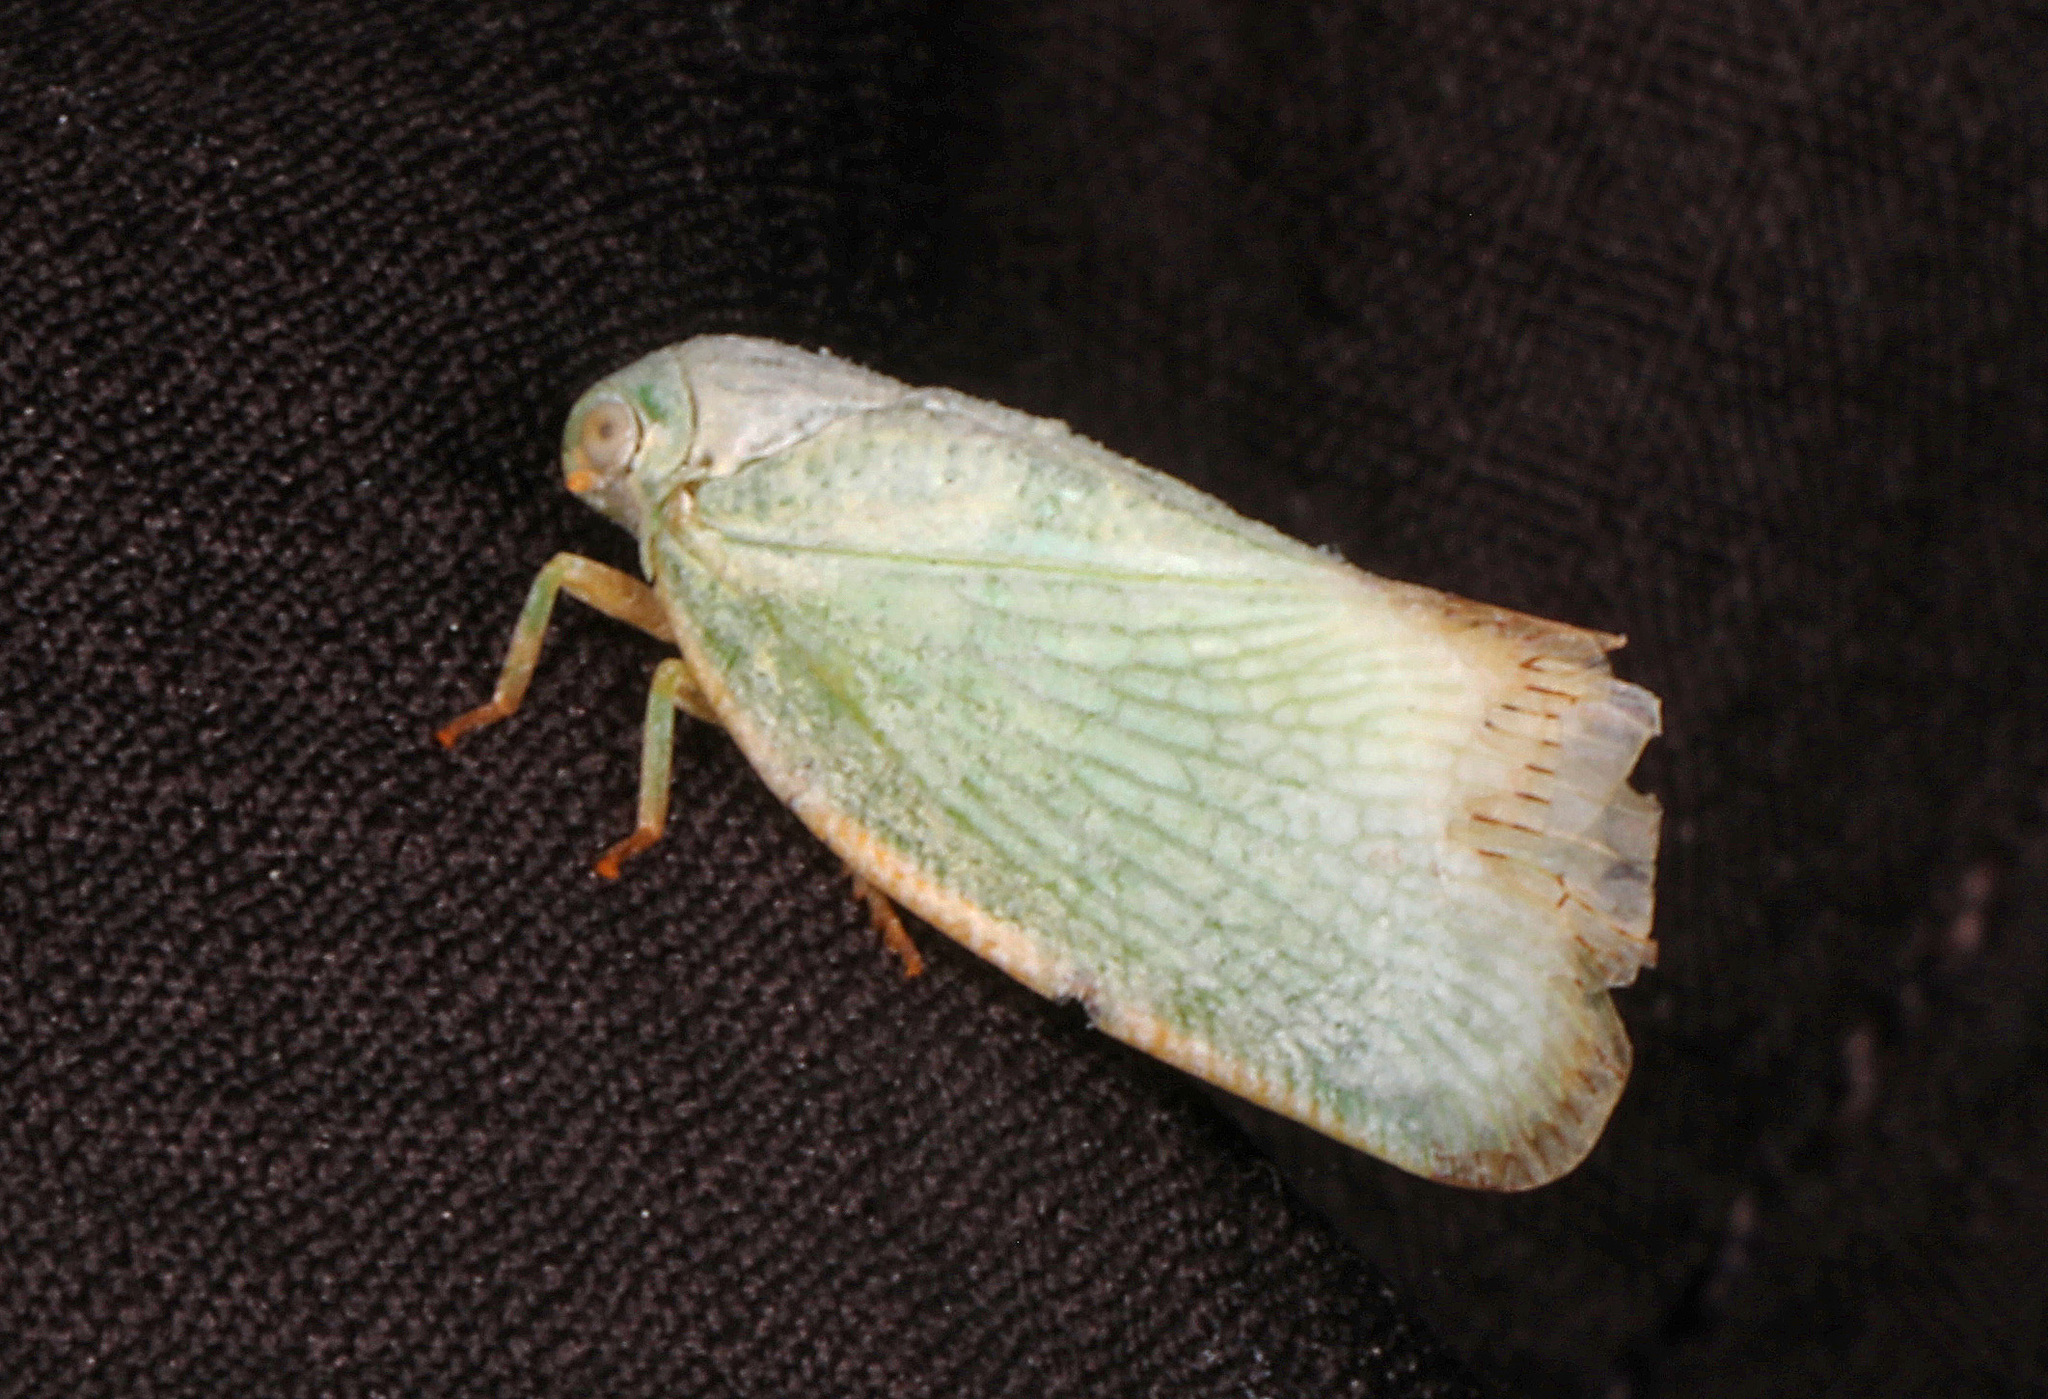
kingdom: Animalia
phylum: Arthropoda
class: Insecta
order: Hemiptera
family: Flatidae
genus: Flatormenis
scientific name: Flatormenis proxima
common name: Northern flatid planthopper
